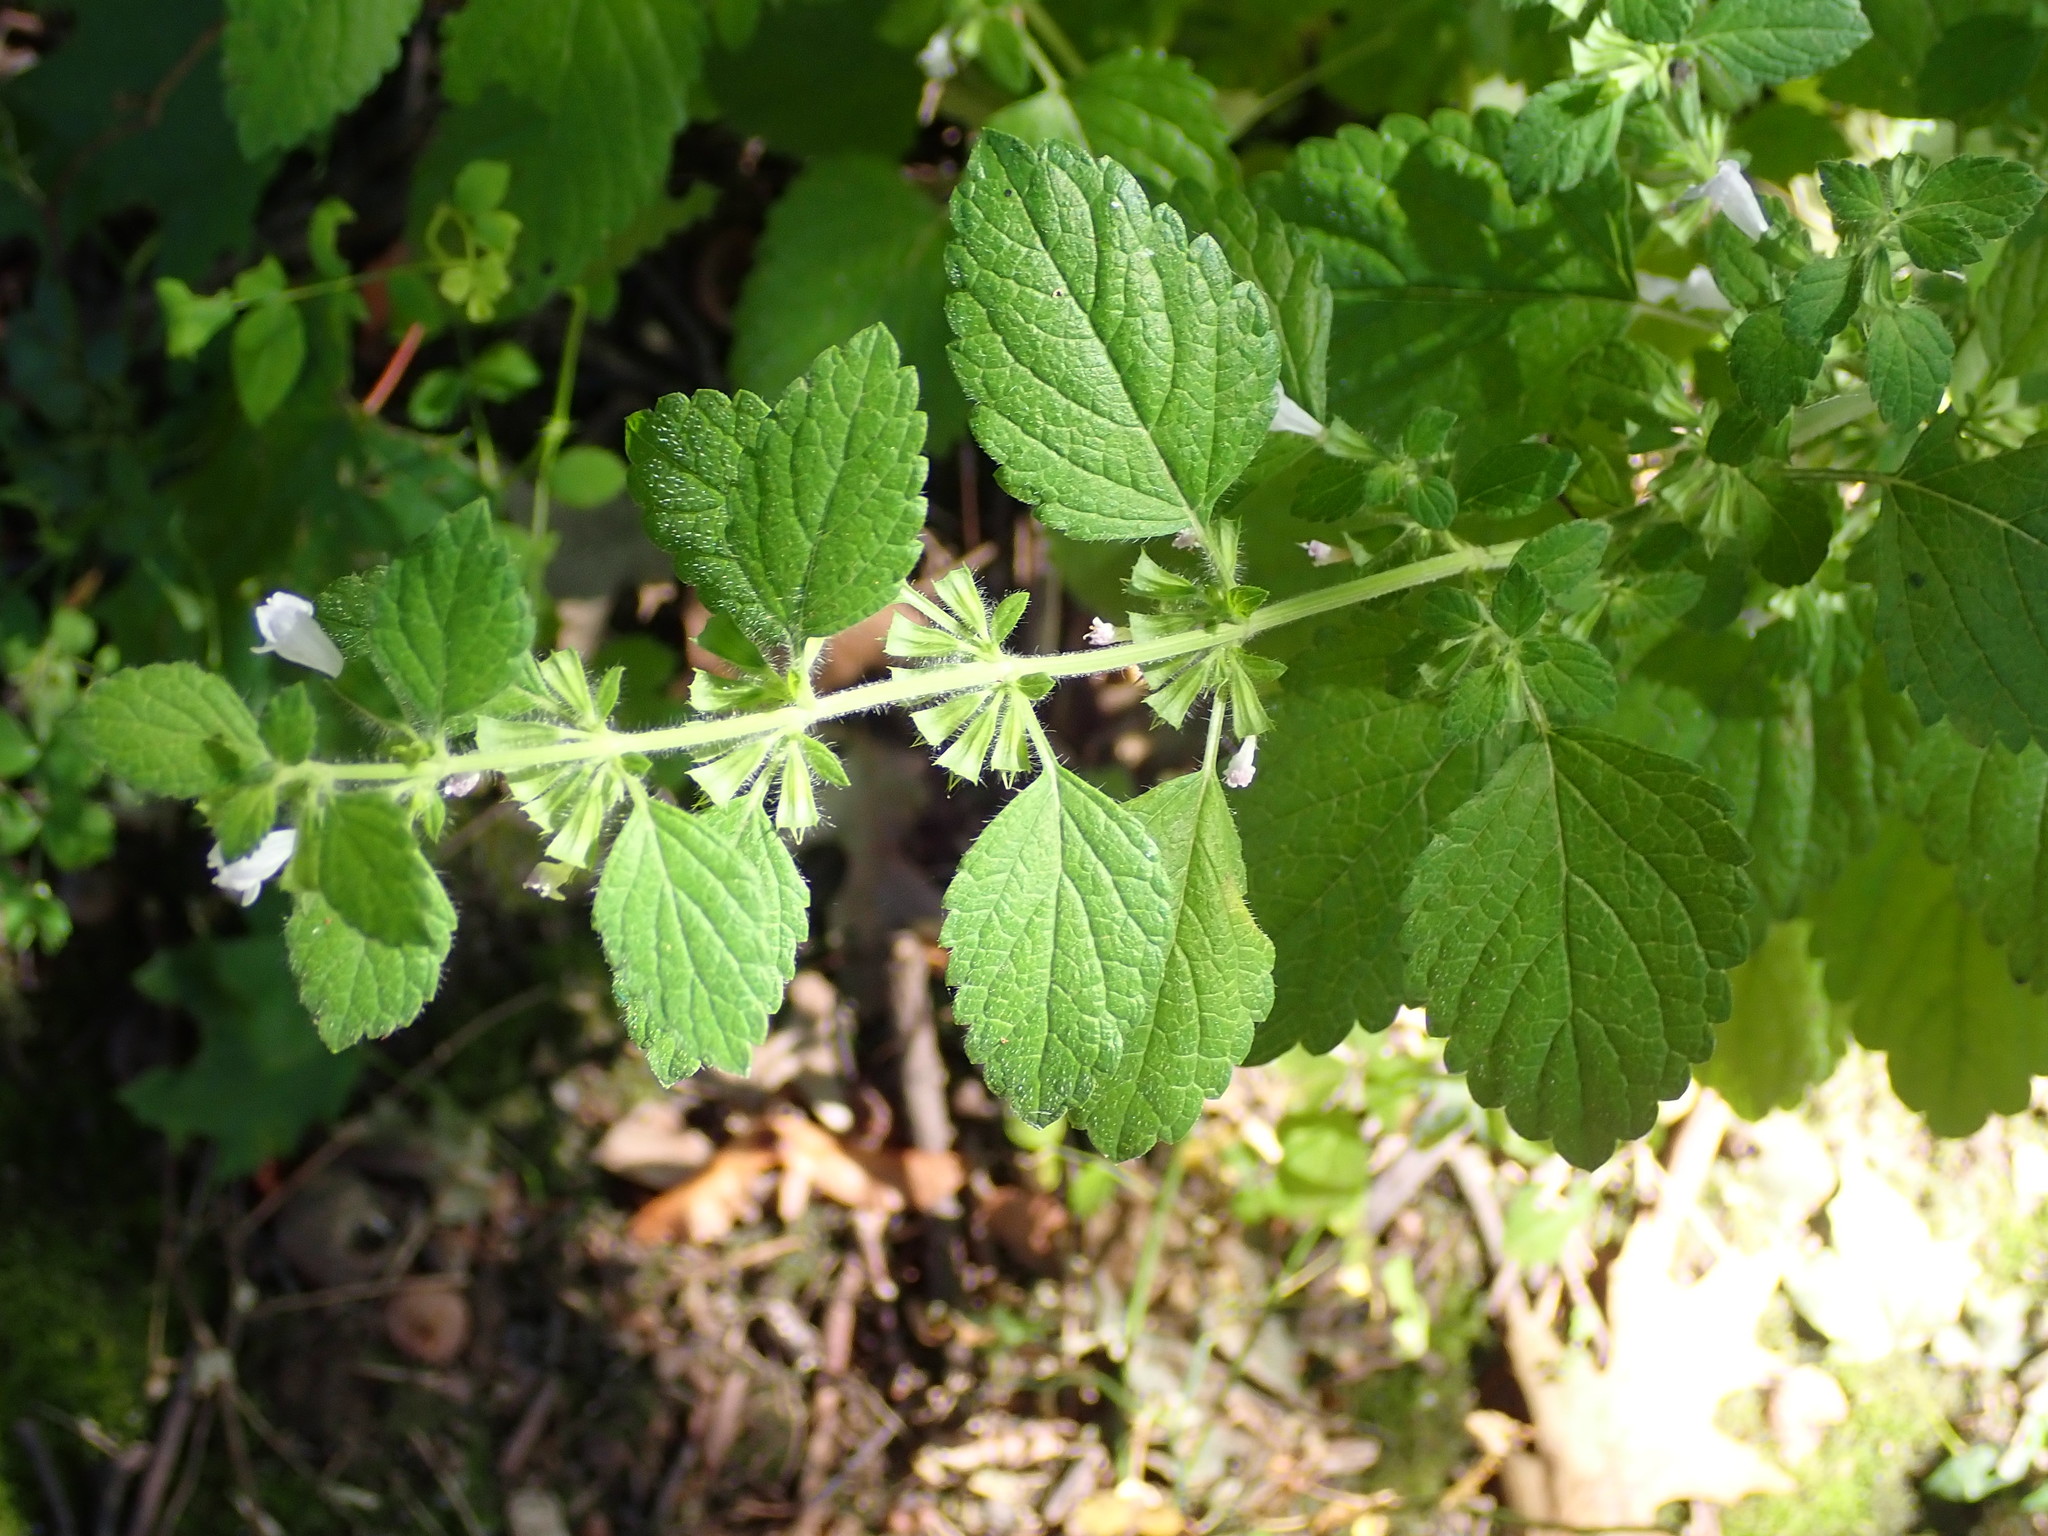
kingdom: Plantae
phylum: Tracheophyta
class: Magnoliopsida
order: Lamiales
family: Lamiaceae
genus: Melissa
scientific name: Melissa officinalis
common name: Balm
